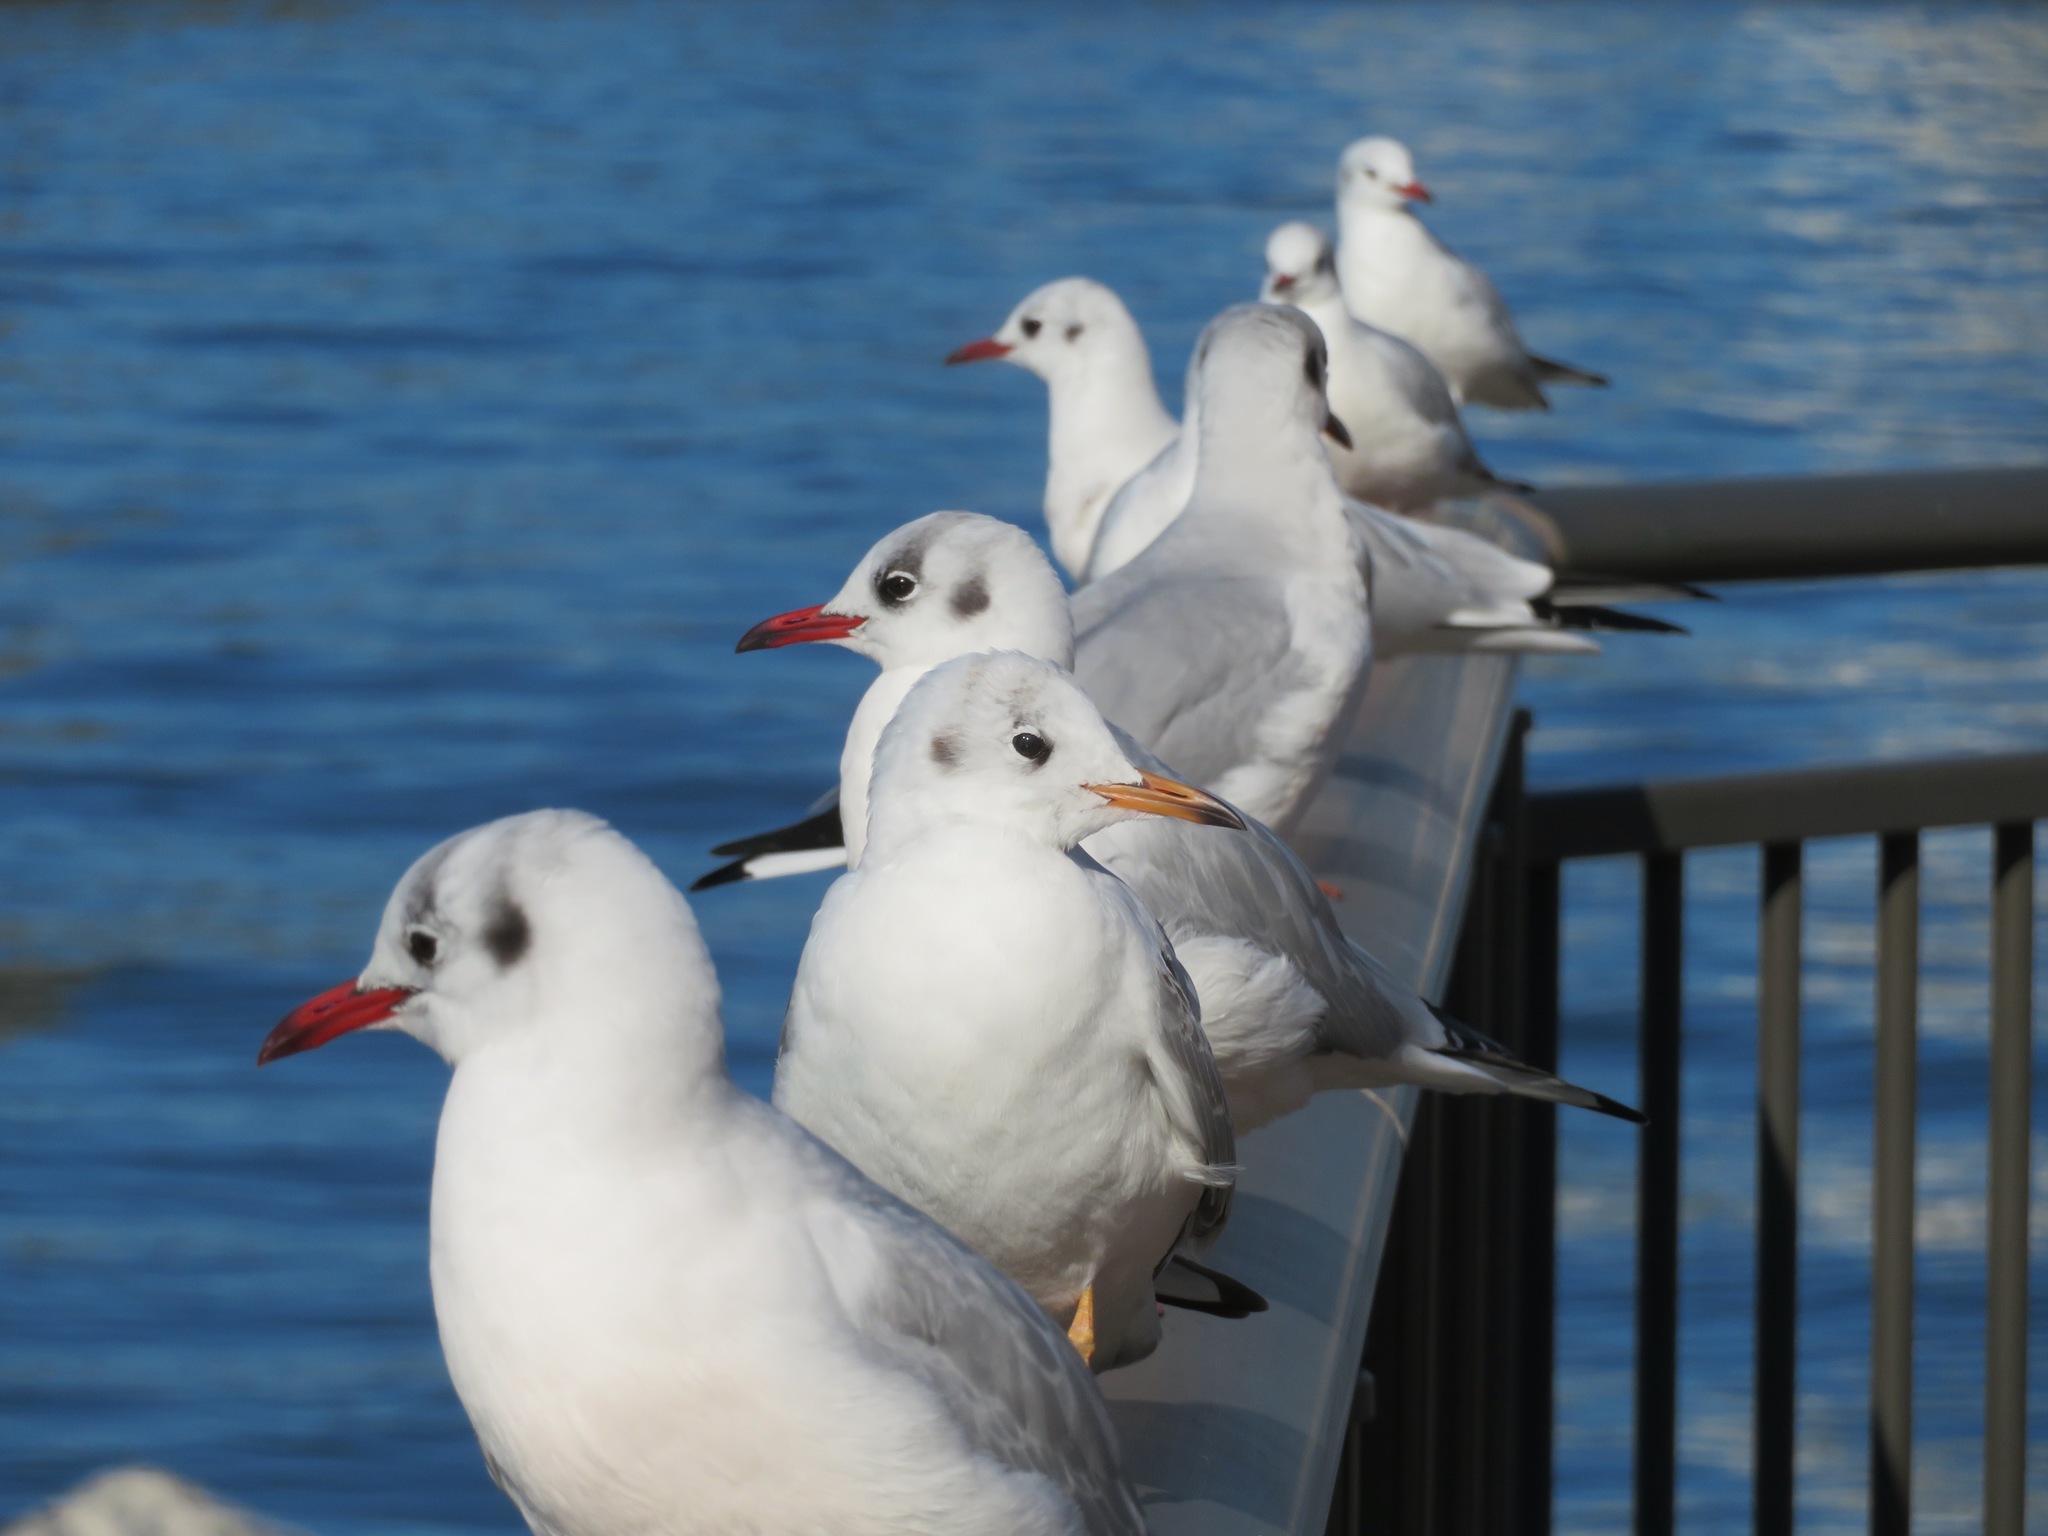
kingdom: Animalia
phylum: Chordata
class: Aves
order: Charadriiformes
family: Laridae
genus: Chroicocephalus
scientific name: Chroicocephalus ridibundus
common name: Black-headed gull
